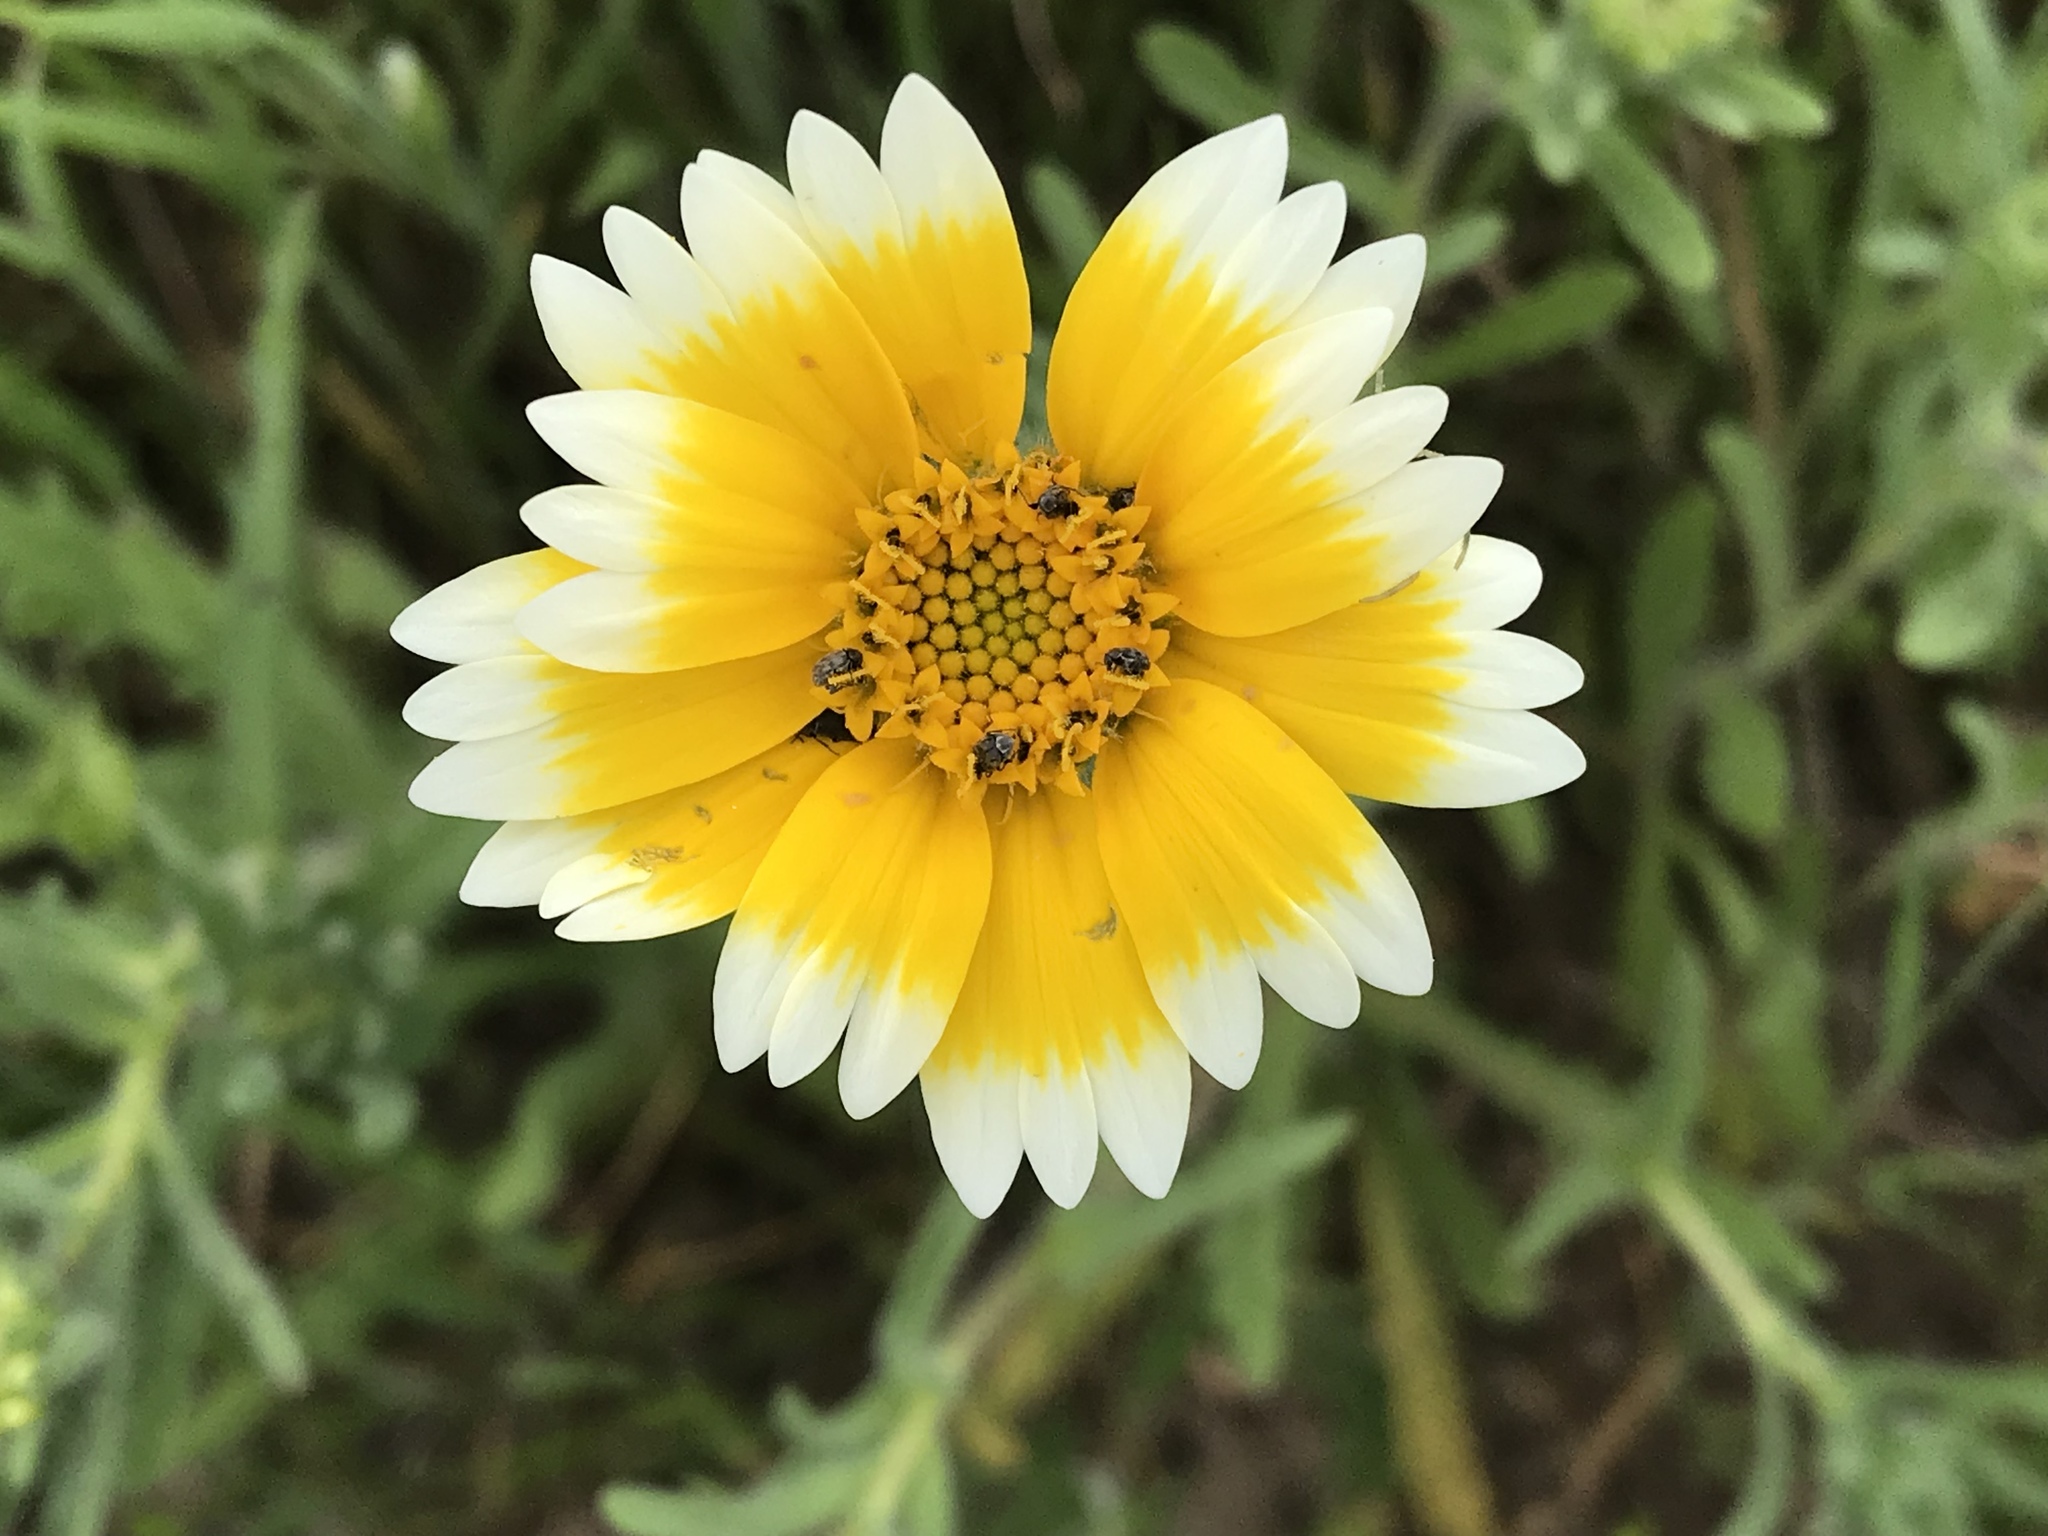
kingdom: Plantae
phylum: Tracheophyta
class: Magnoliopsida
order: Asterales
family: Asteraceae
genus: Layia
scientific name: Layia platyglossa
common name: Tidy-tips
